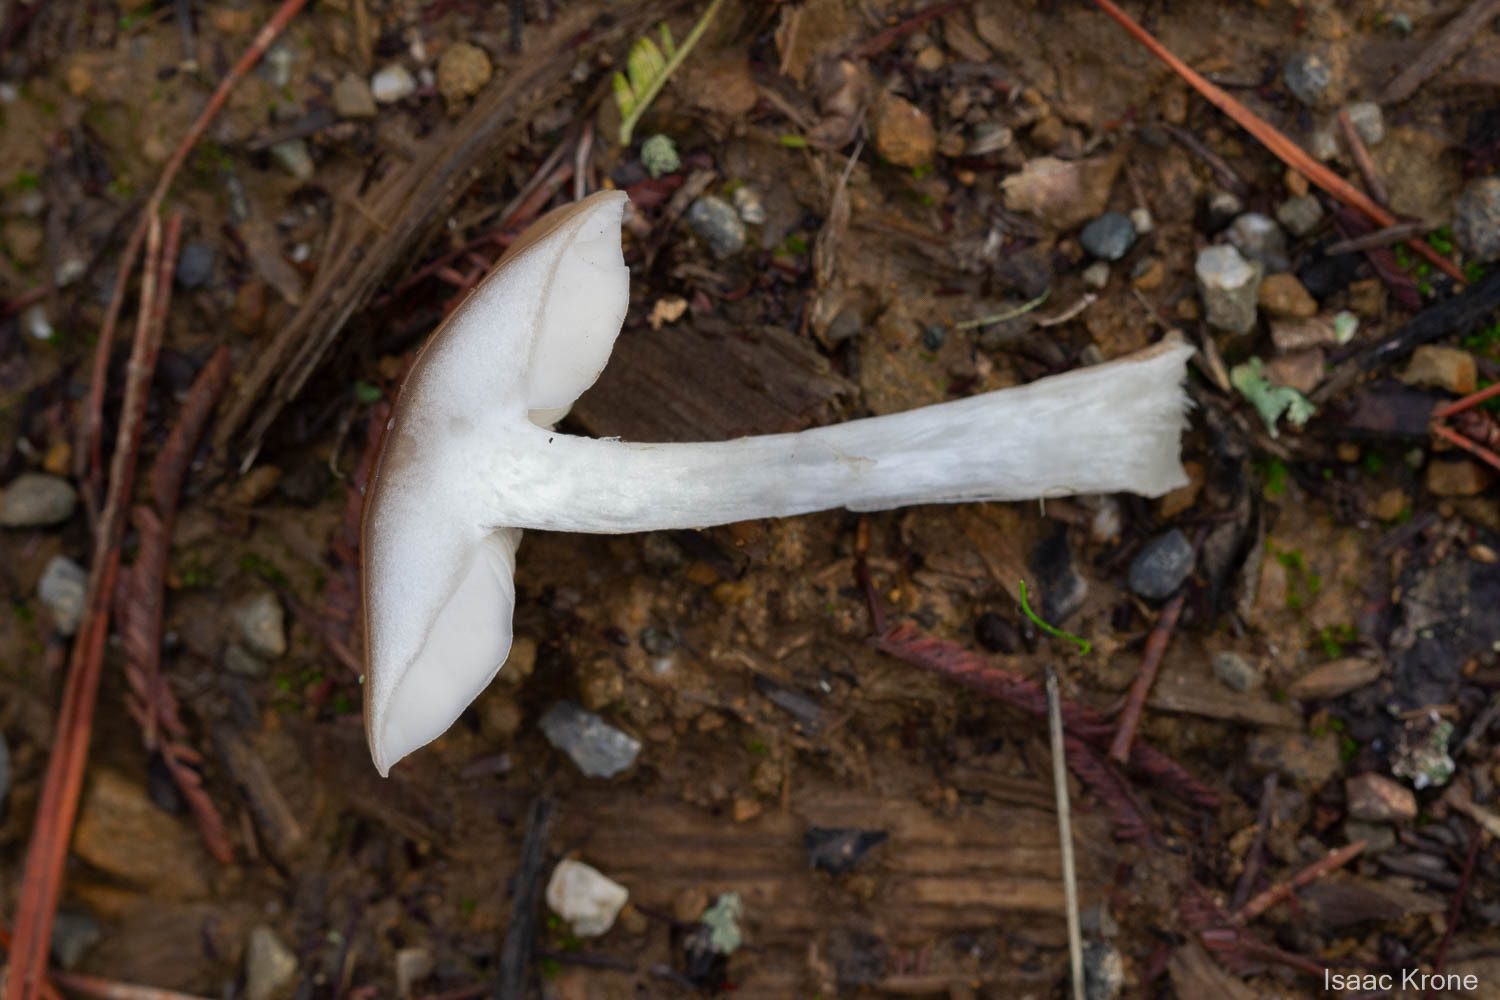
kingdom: Fungi
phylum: Basidiomycota
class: Agaricomycetes
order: Agaricales
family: Pluteaceae
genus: Pluteus
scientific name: Pluteus exilis
